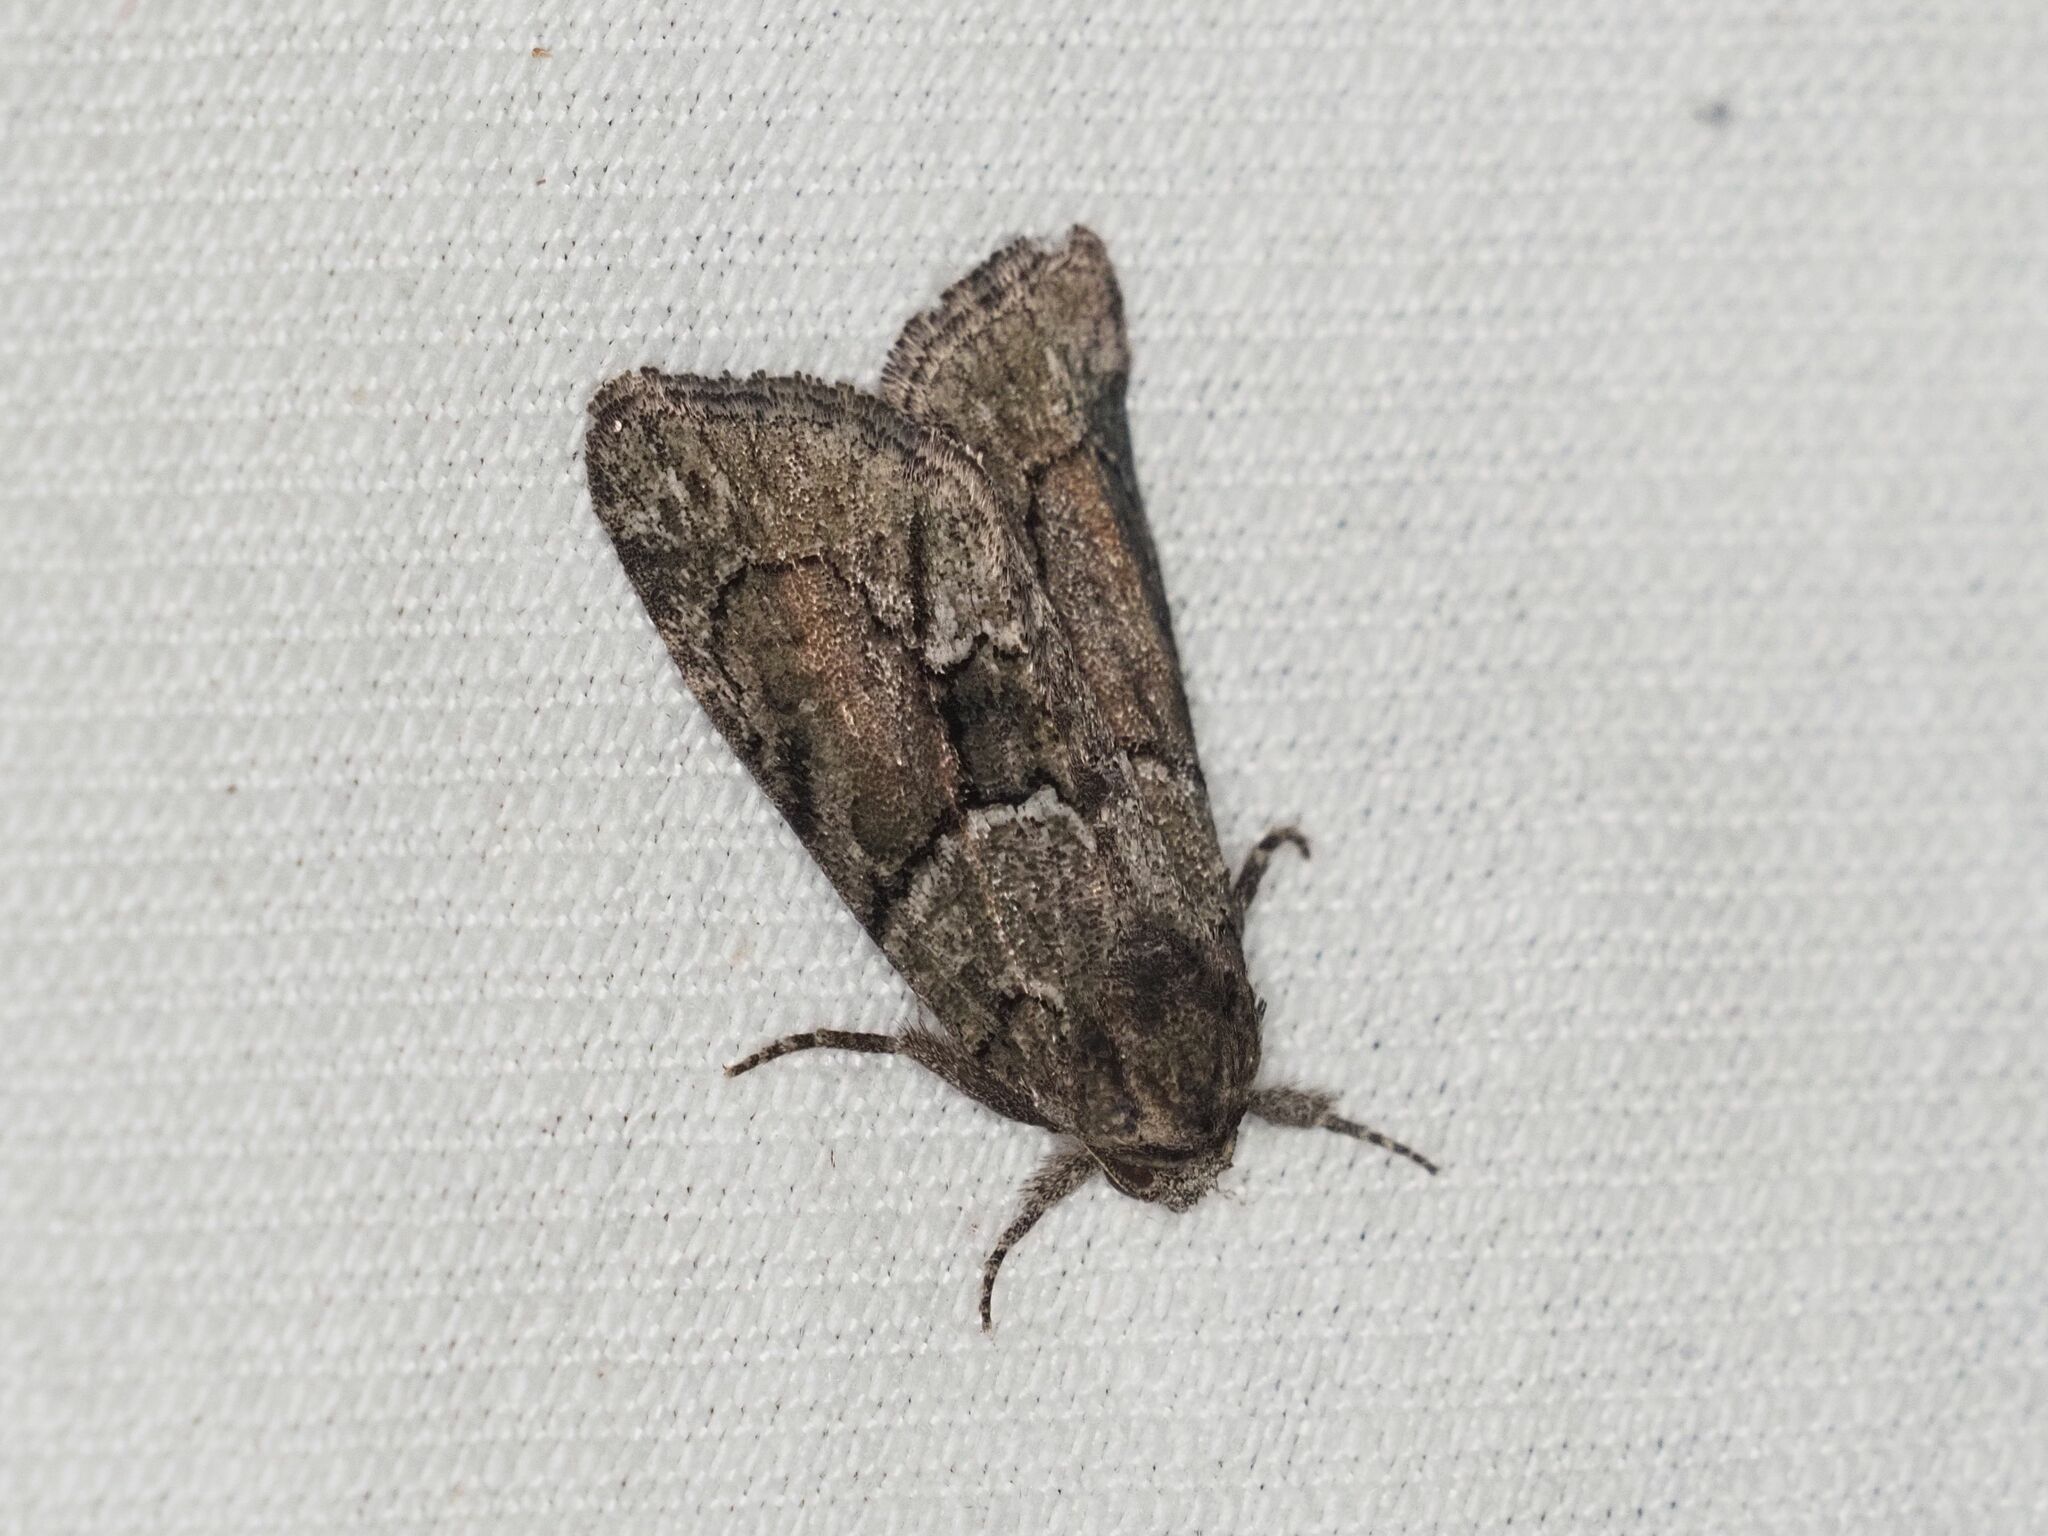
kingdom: Animalia
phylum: Arthropoda
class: Insecta
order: Lepidoptera
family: Noctuidae
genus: Cryphia
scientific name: Cryphia fraudatricula
